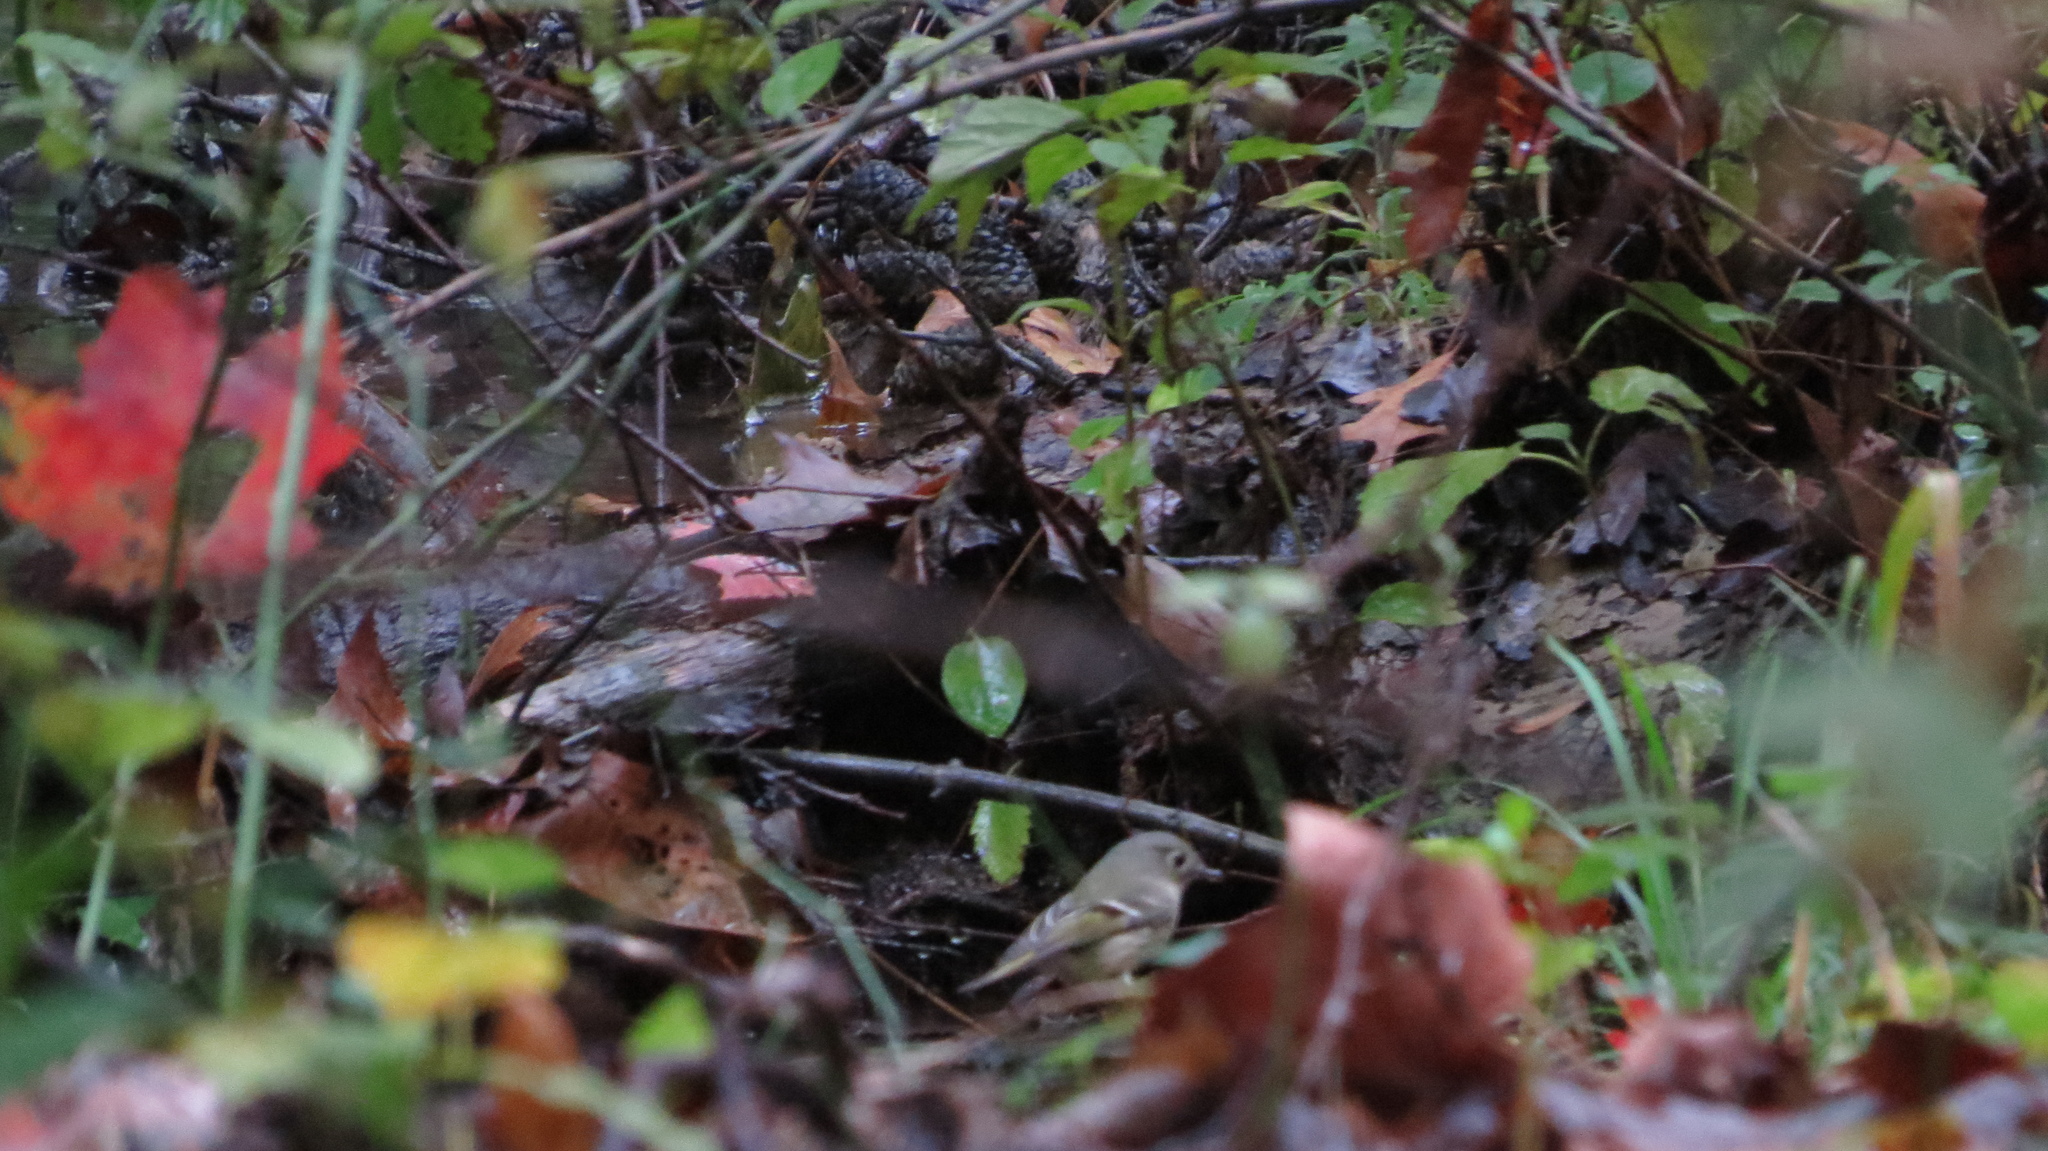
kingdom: Animalia
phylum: Chordata
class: Aves
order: Passeriformes
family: Regulidae
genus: Regulus
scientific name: Regulus calendula
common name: Ruby-crowned kinglet
